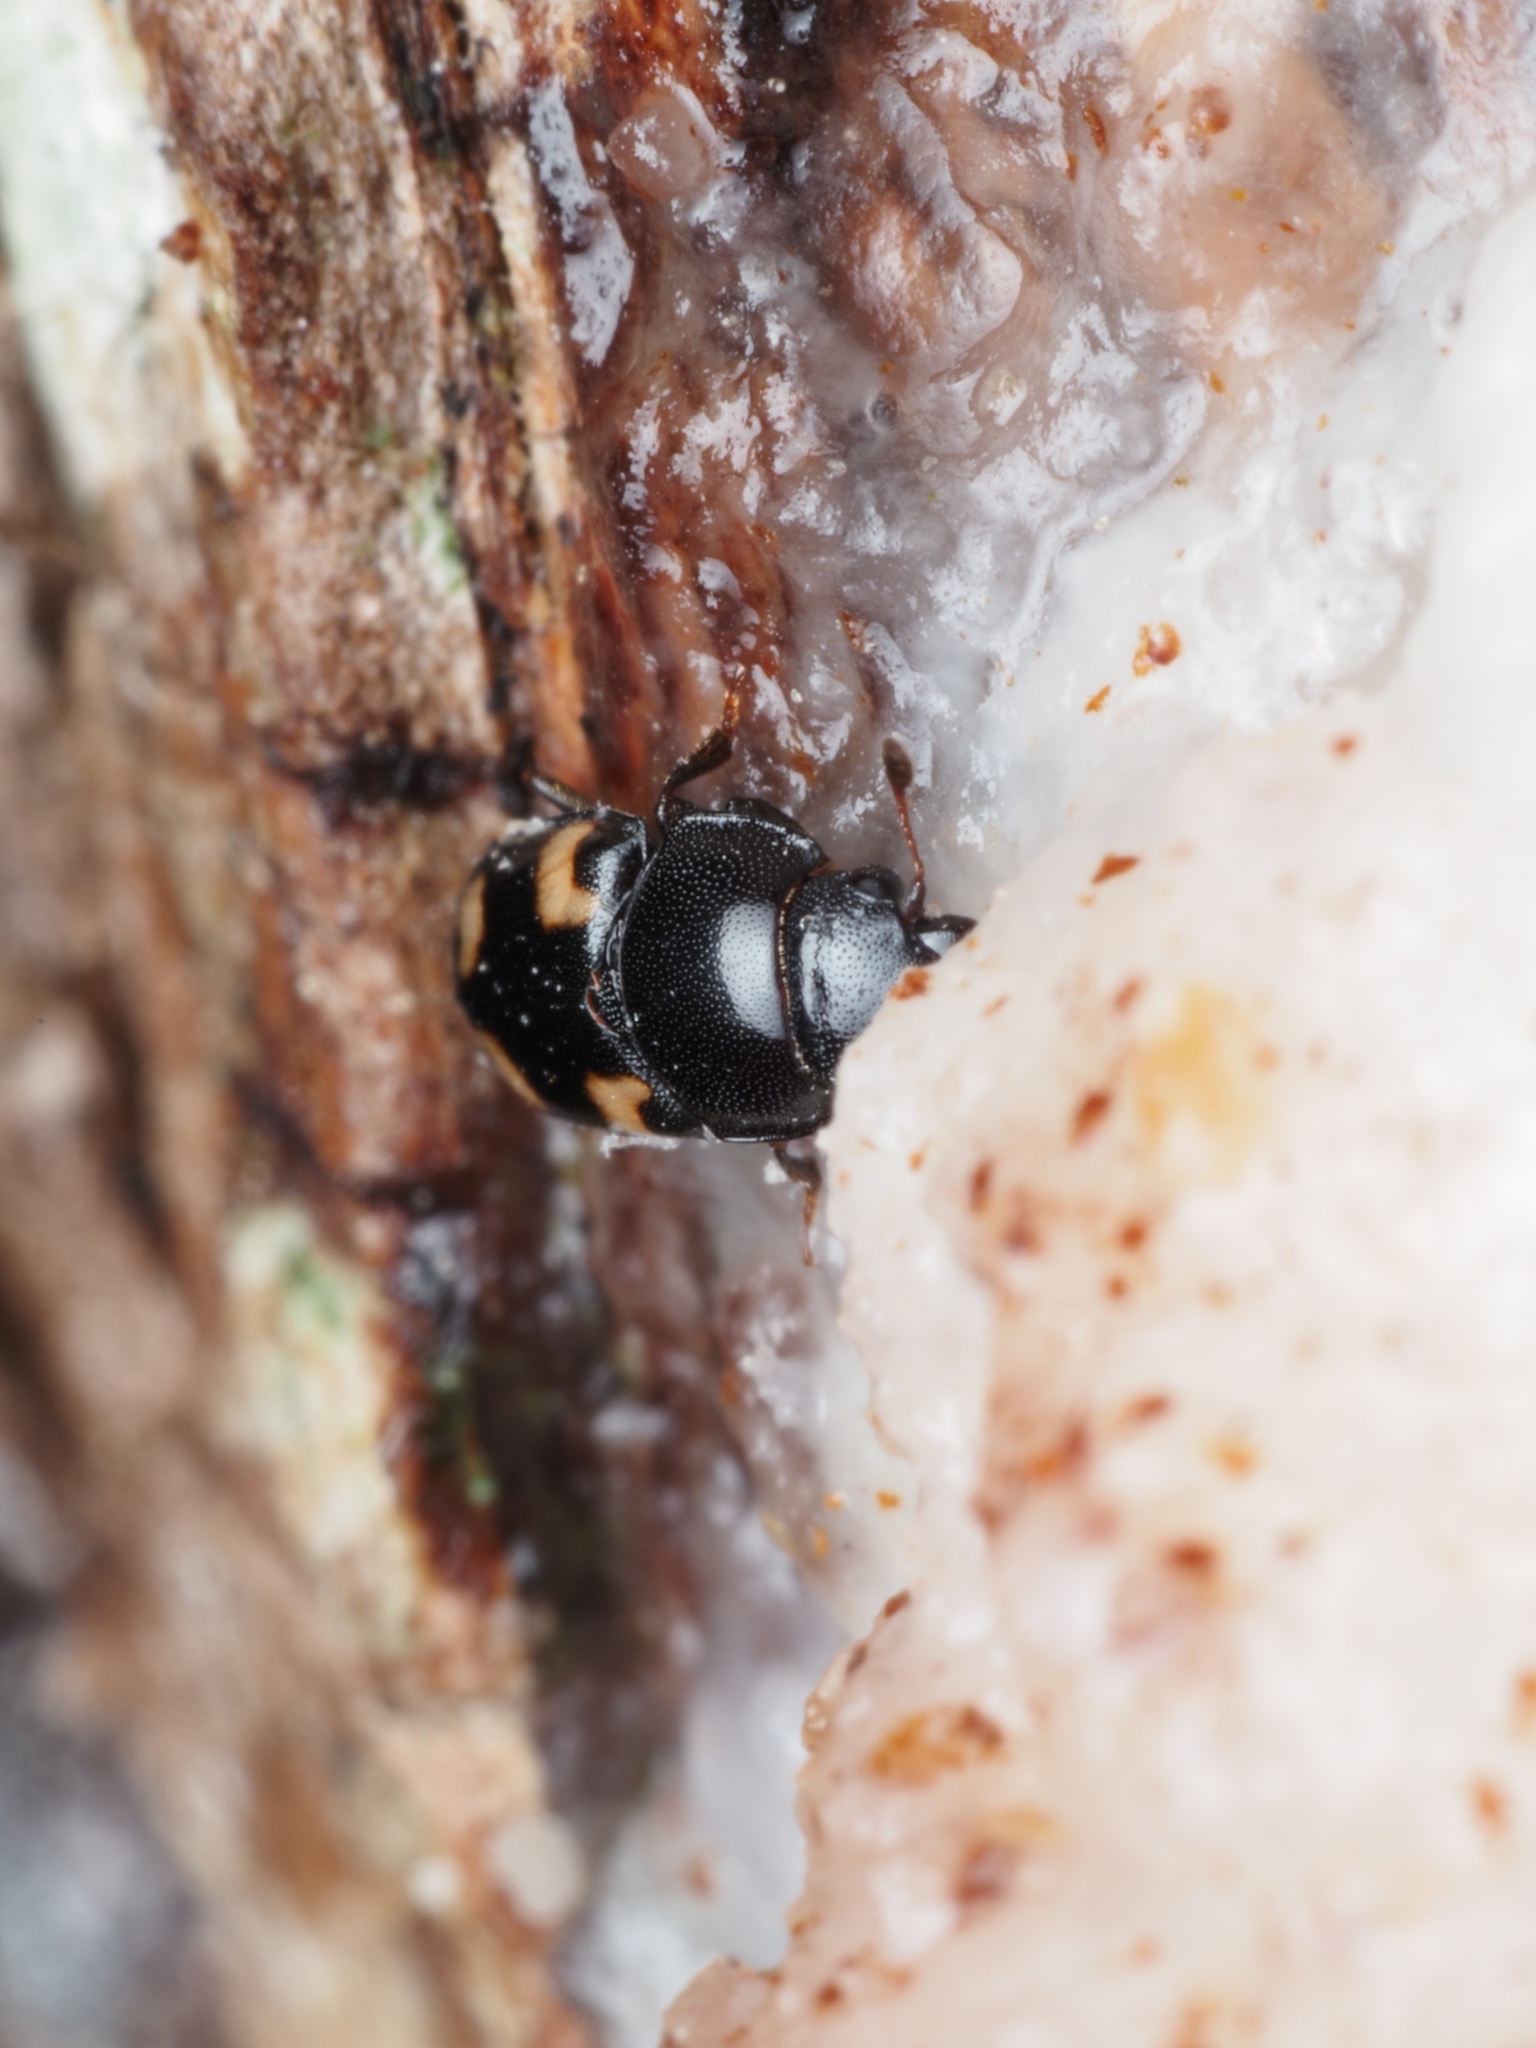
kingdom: Animalia
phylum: Arthropoda
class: Insecta
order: Coleoptera
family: Nitidulidae
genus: Glischrochilus
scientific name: Glischrochilus quadrisignatus
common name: Picnic beetle
